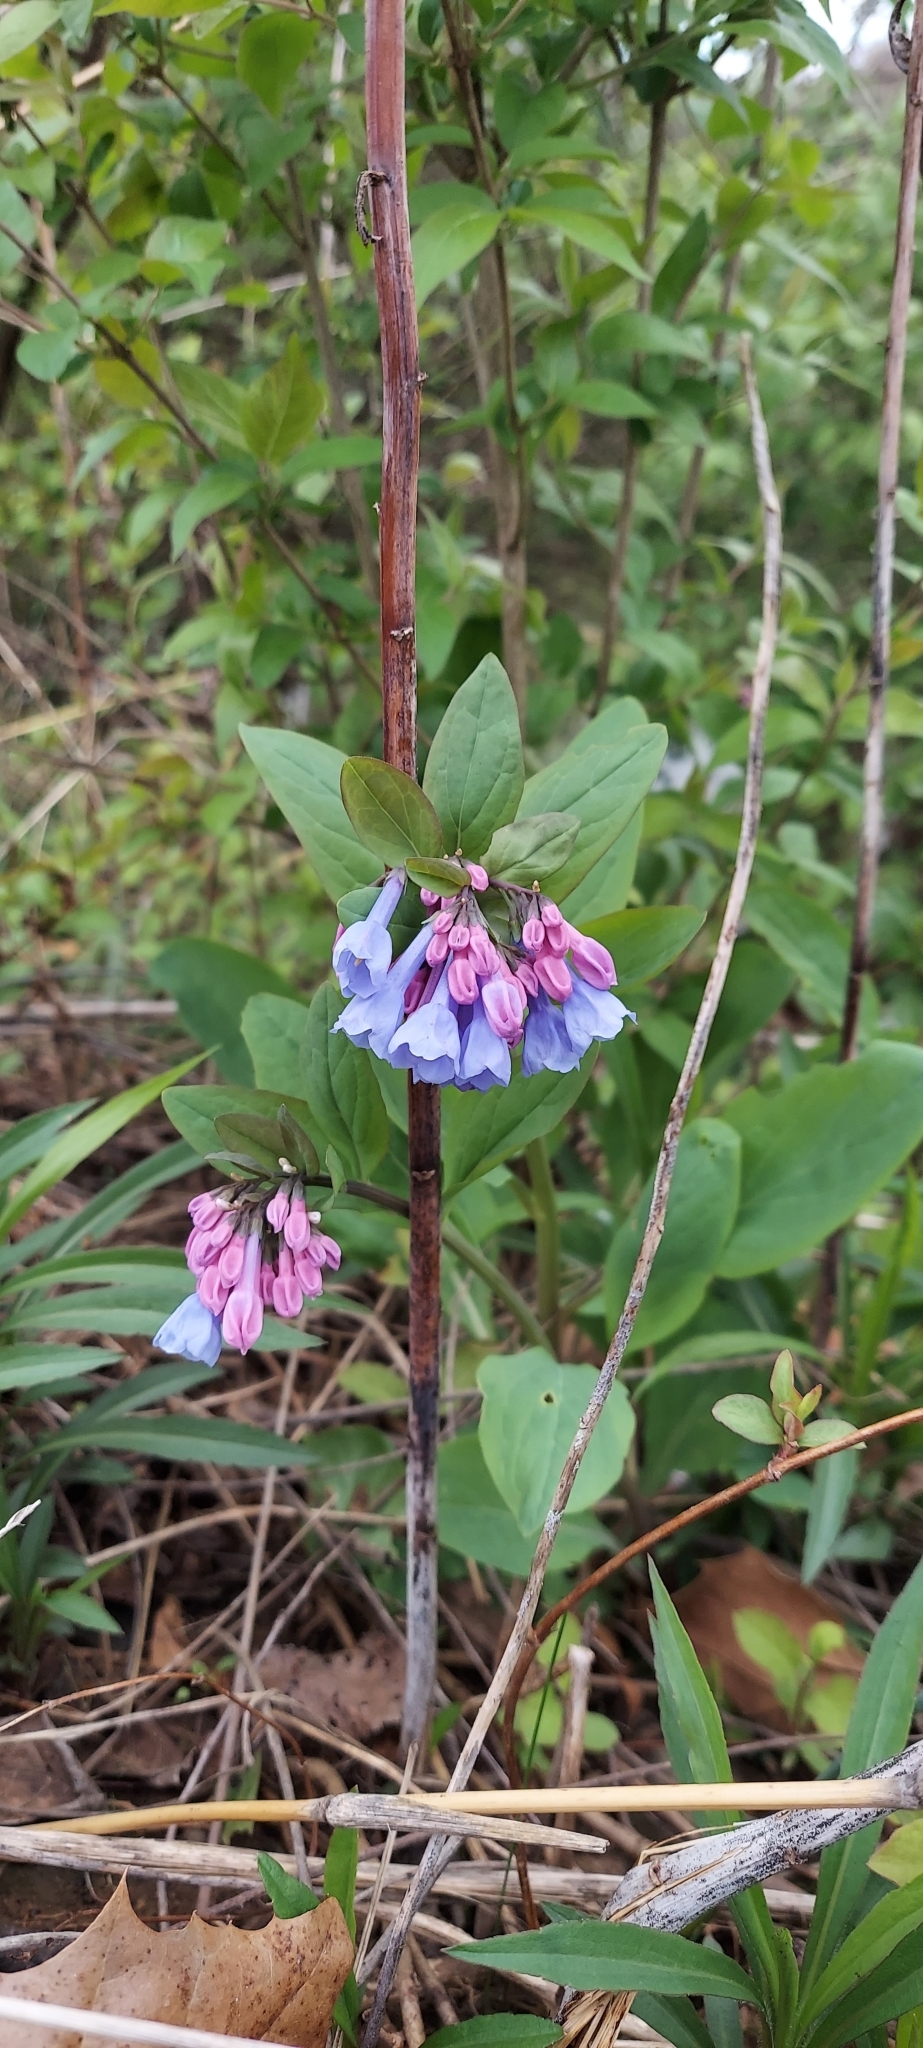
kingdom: Plantae
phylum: Tracheophyta
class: Magnoliopsida
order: Boraginales
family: Boraginaceae
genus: Mertensia
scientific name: Mertensia virginica
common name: Virginia bluebells
